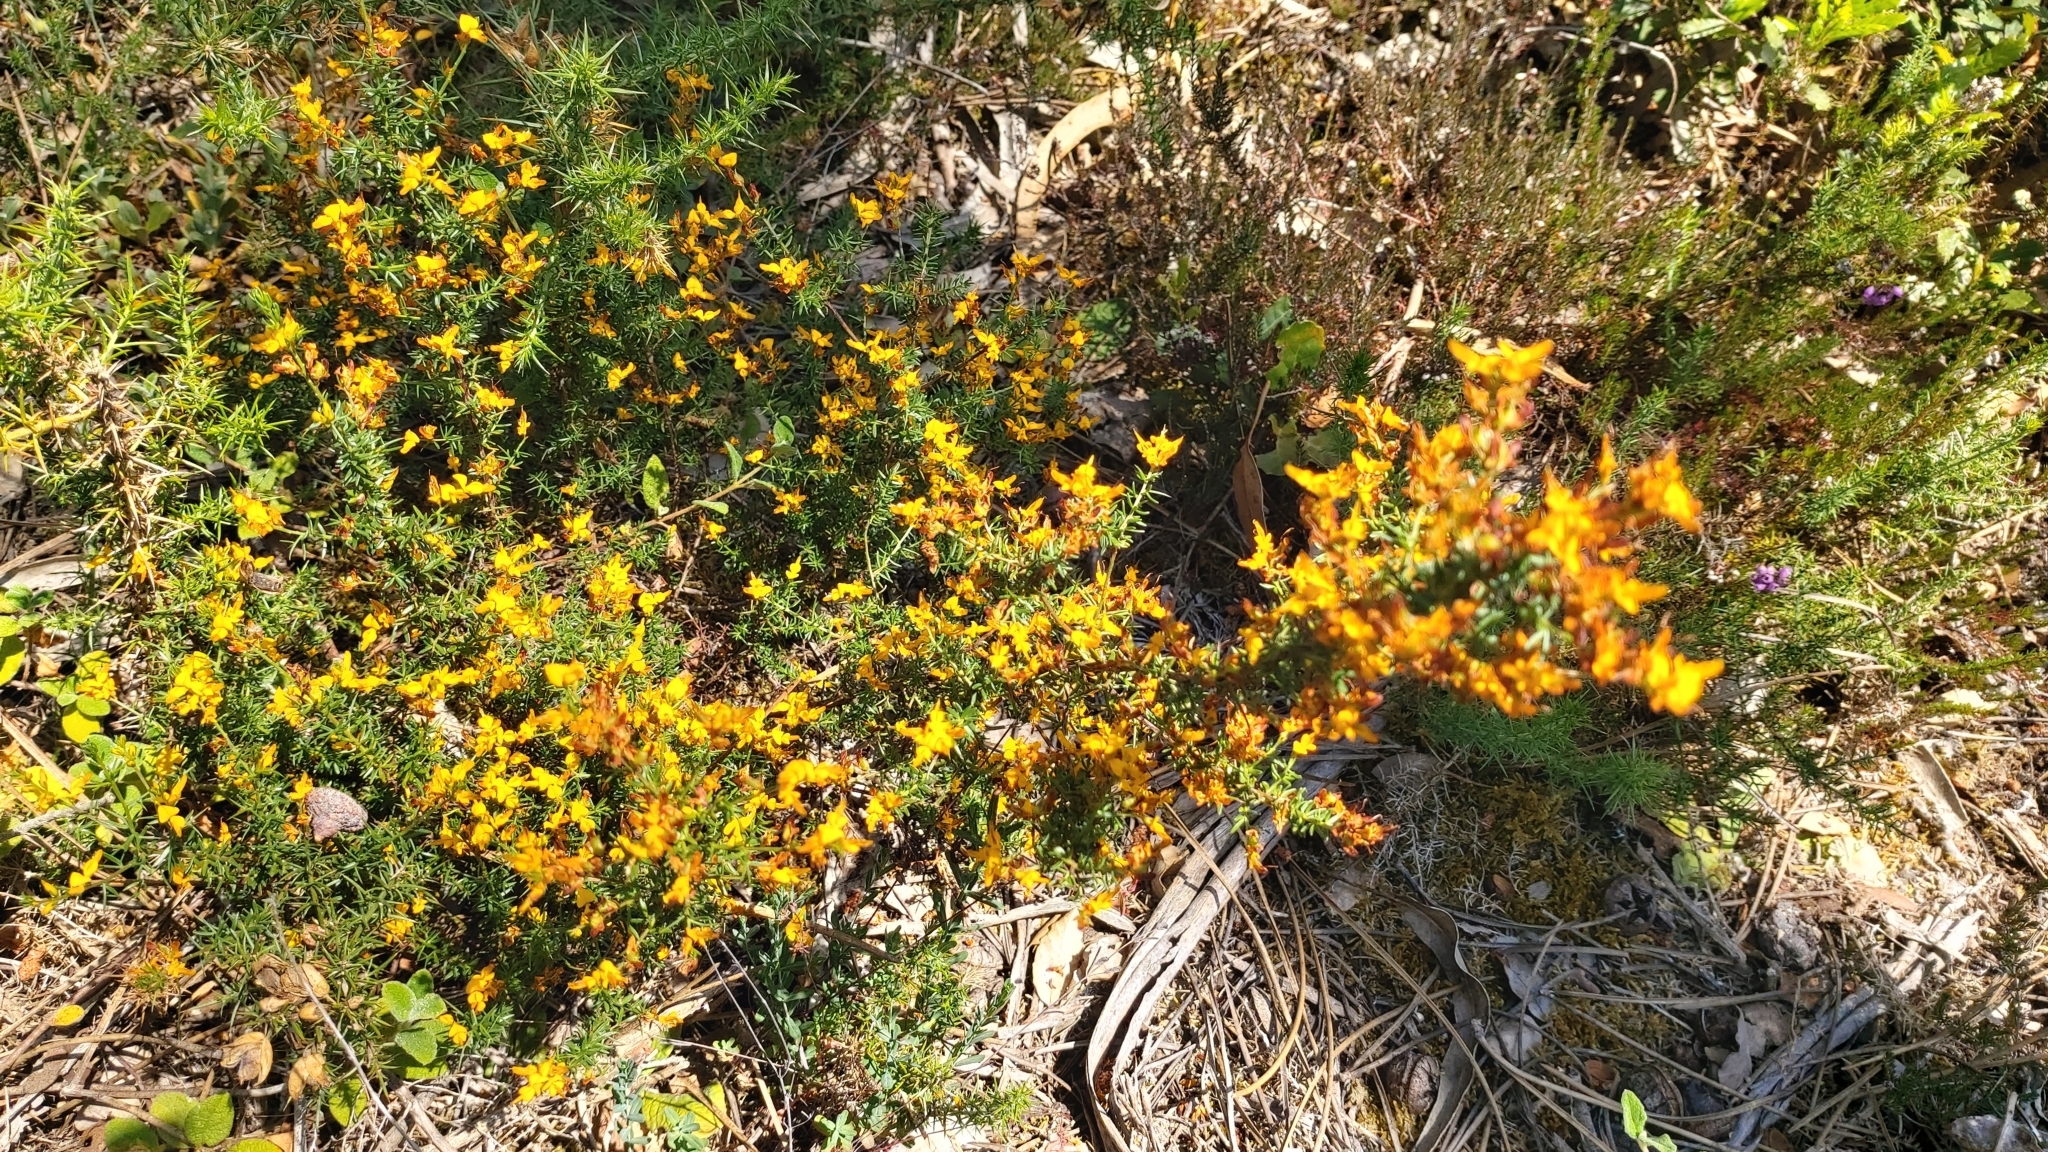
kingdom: Plantae
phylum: Tracheophyta
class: Magnoliopsida
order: Fabales
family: Fabaceae
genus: Genista
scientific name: Genista triacanthos
